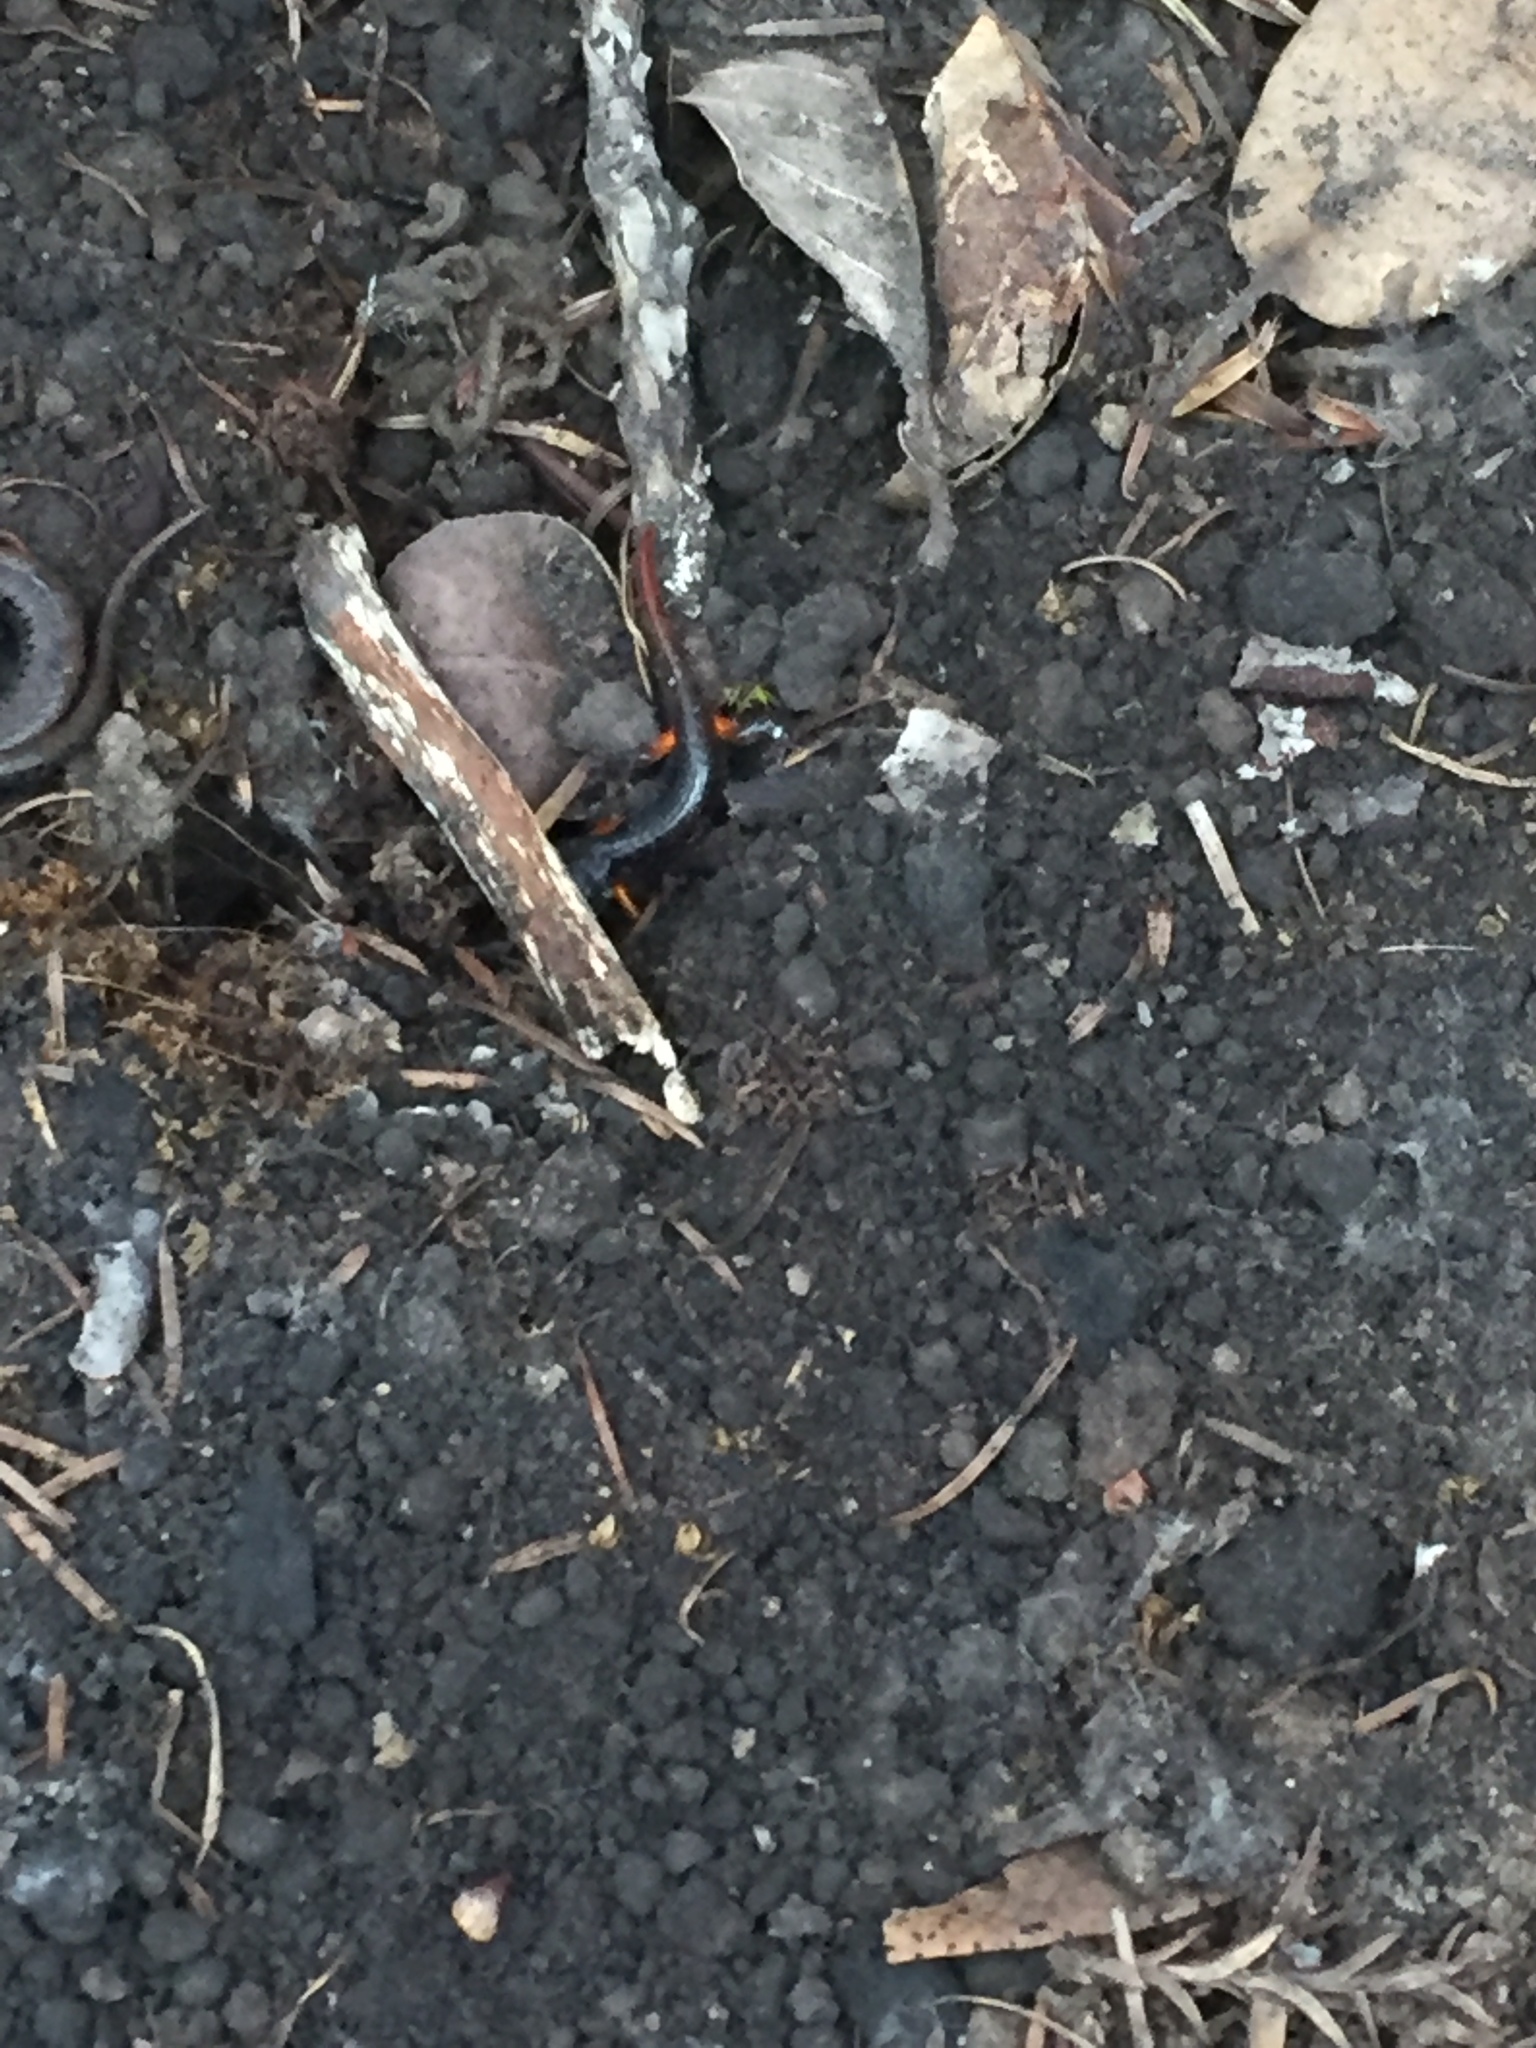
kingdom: Animalia
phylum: Chordata
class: Amphibia
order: Caudata
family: Plethodontidae
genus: Ensatina
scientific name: Ensatina eschscholtzii
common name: Ensatina
